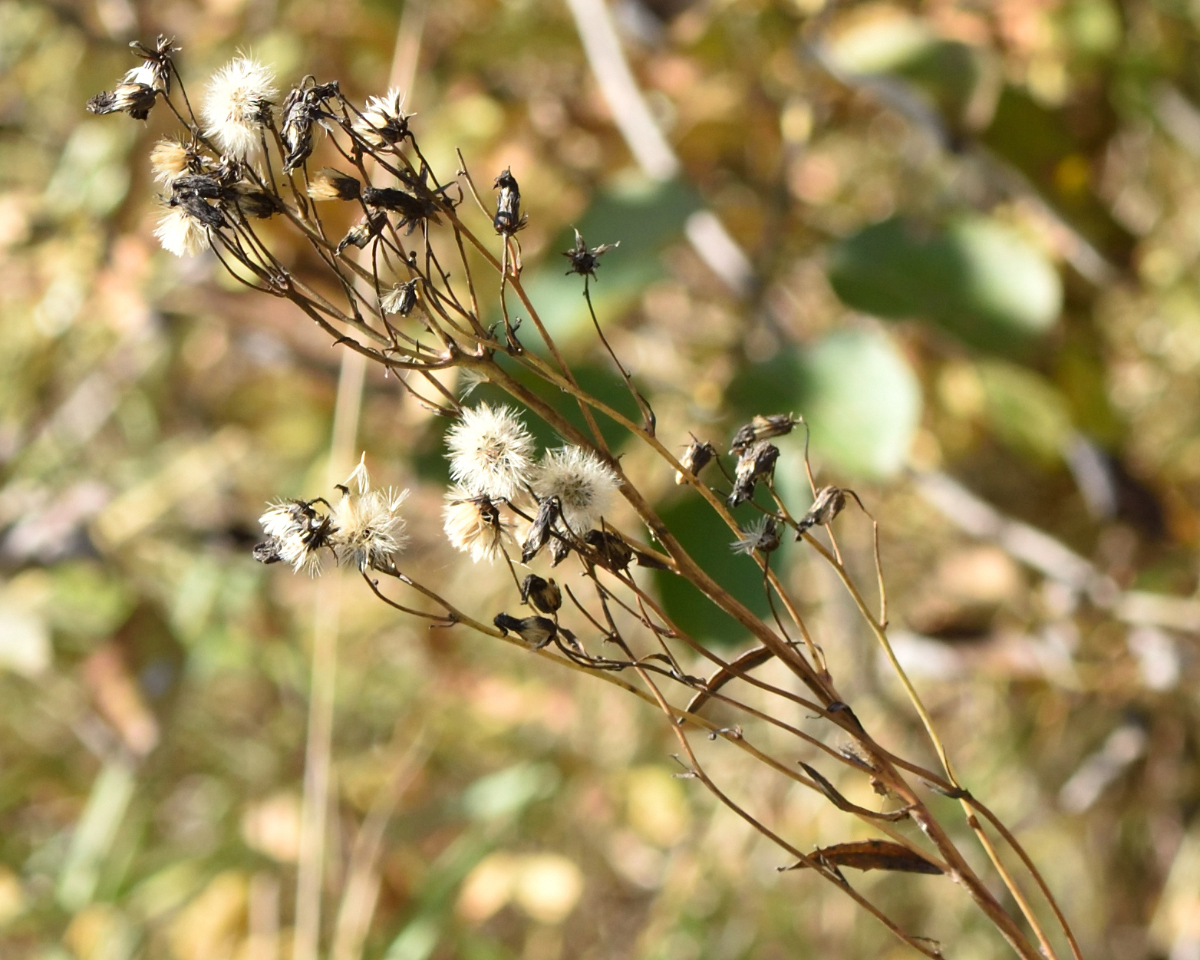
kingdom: Plantae
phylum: Tracheophyta
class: Magnoliopsida
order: Asterales
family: Asteraceae
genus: Hieracium
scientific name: Hieracium umbellatum
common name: Northern hawkweed
